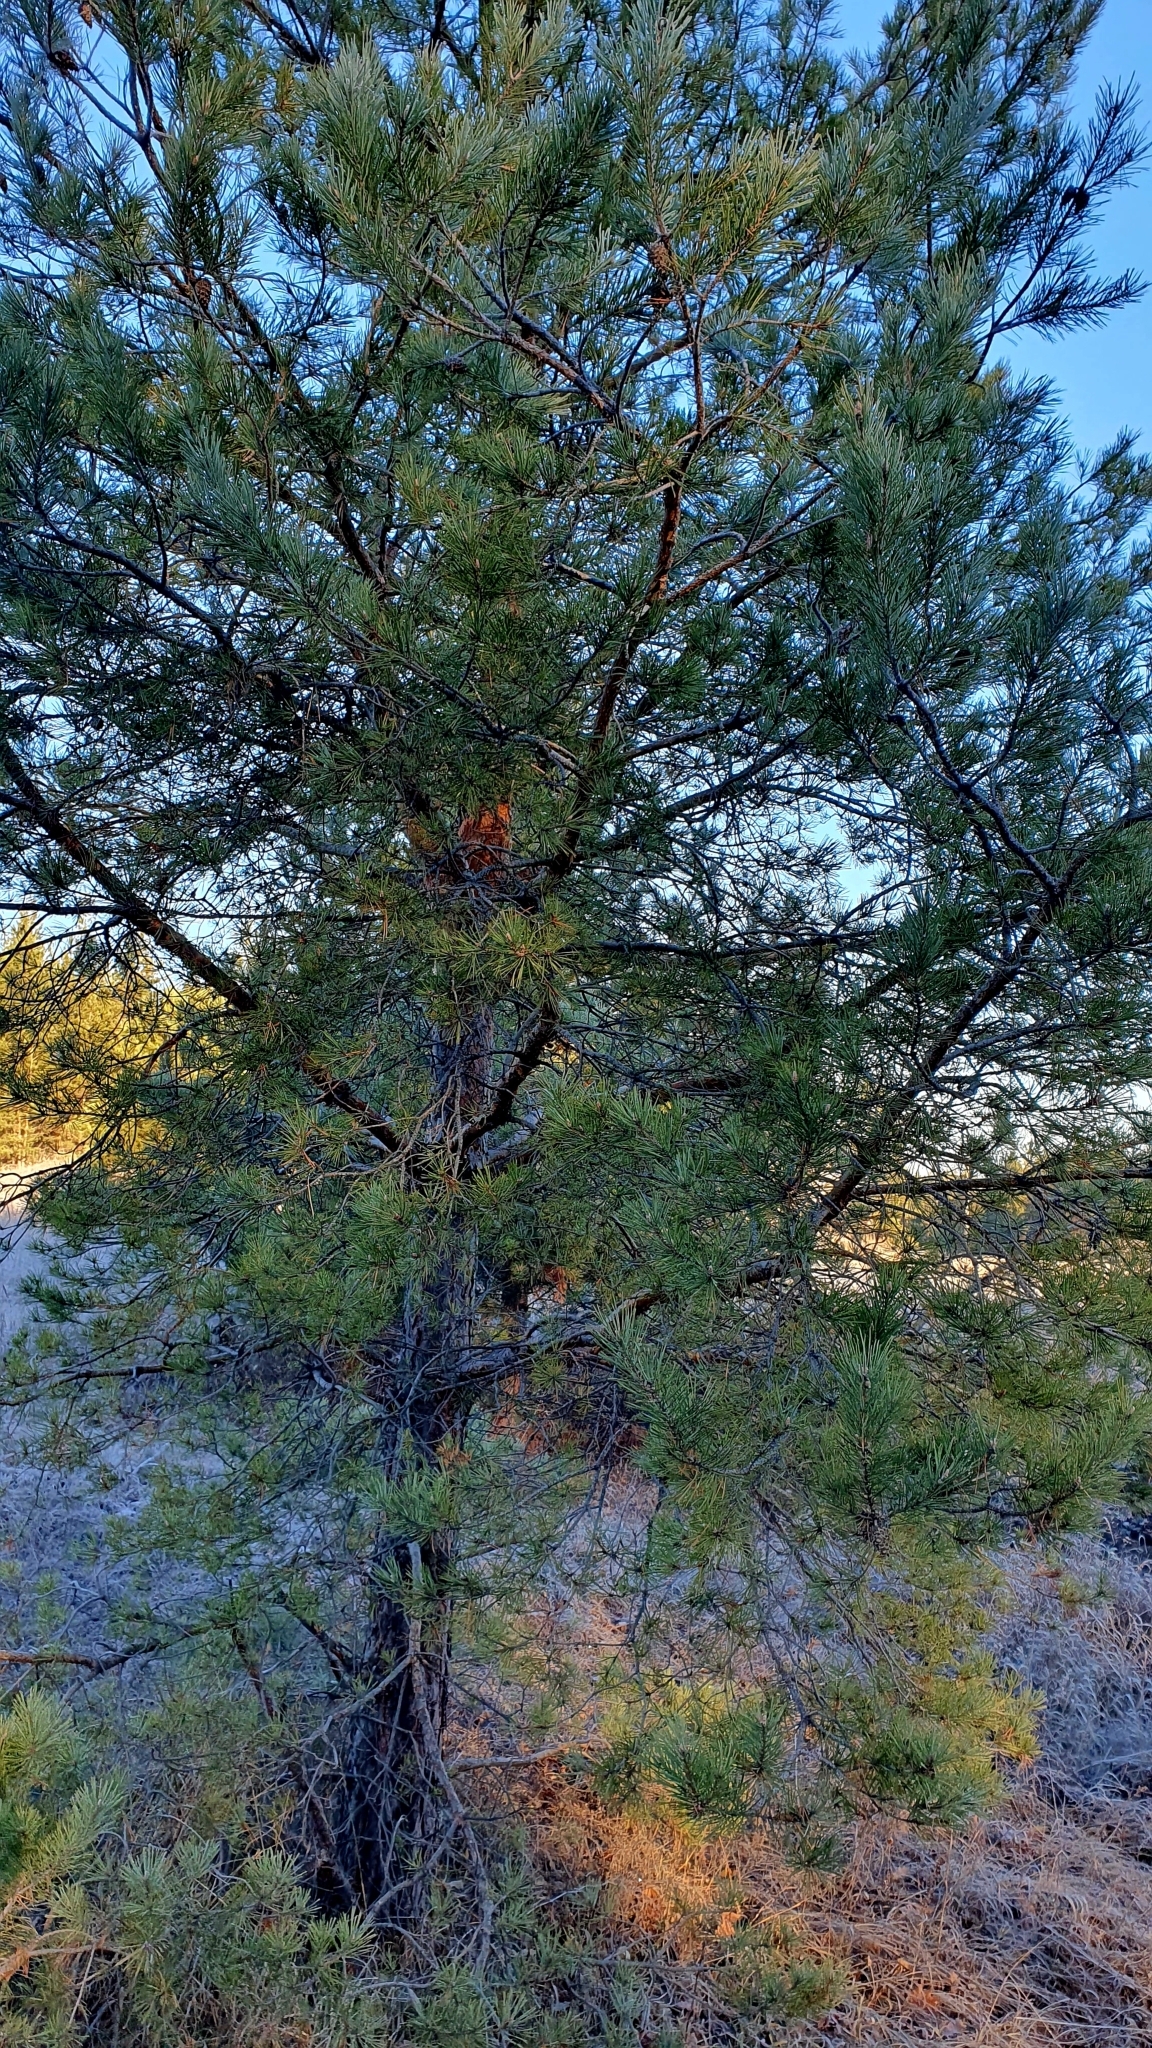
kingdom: Plantae
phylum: Tracheophyta
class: Pinopsida
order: Pinales
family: Pinaceae
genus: Pinus
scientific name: Pinus sylvestris
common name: Scots pine
